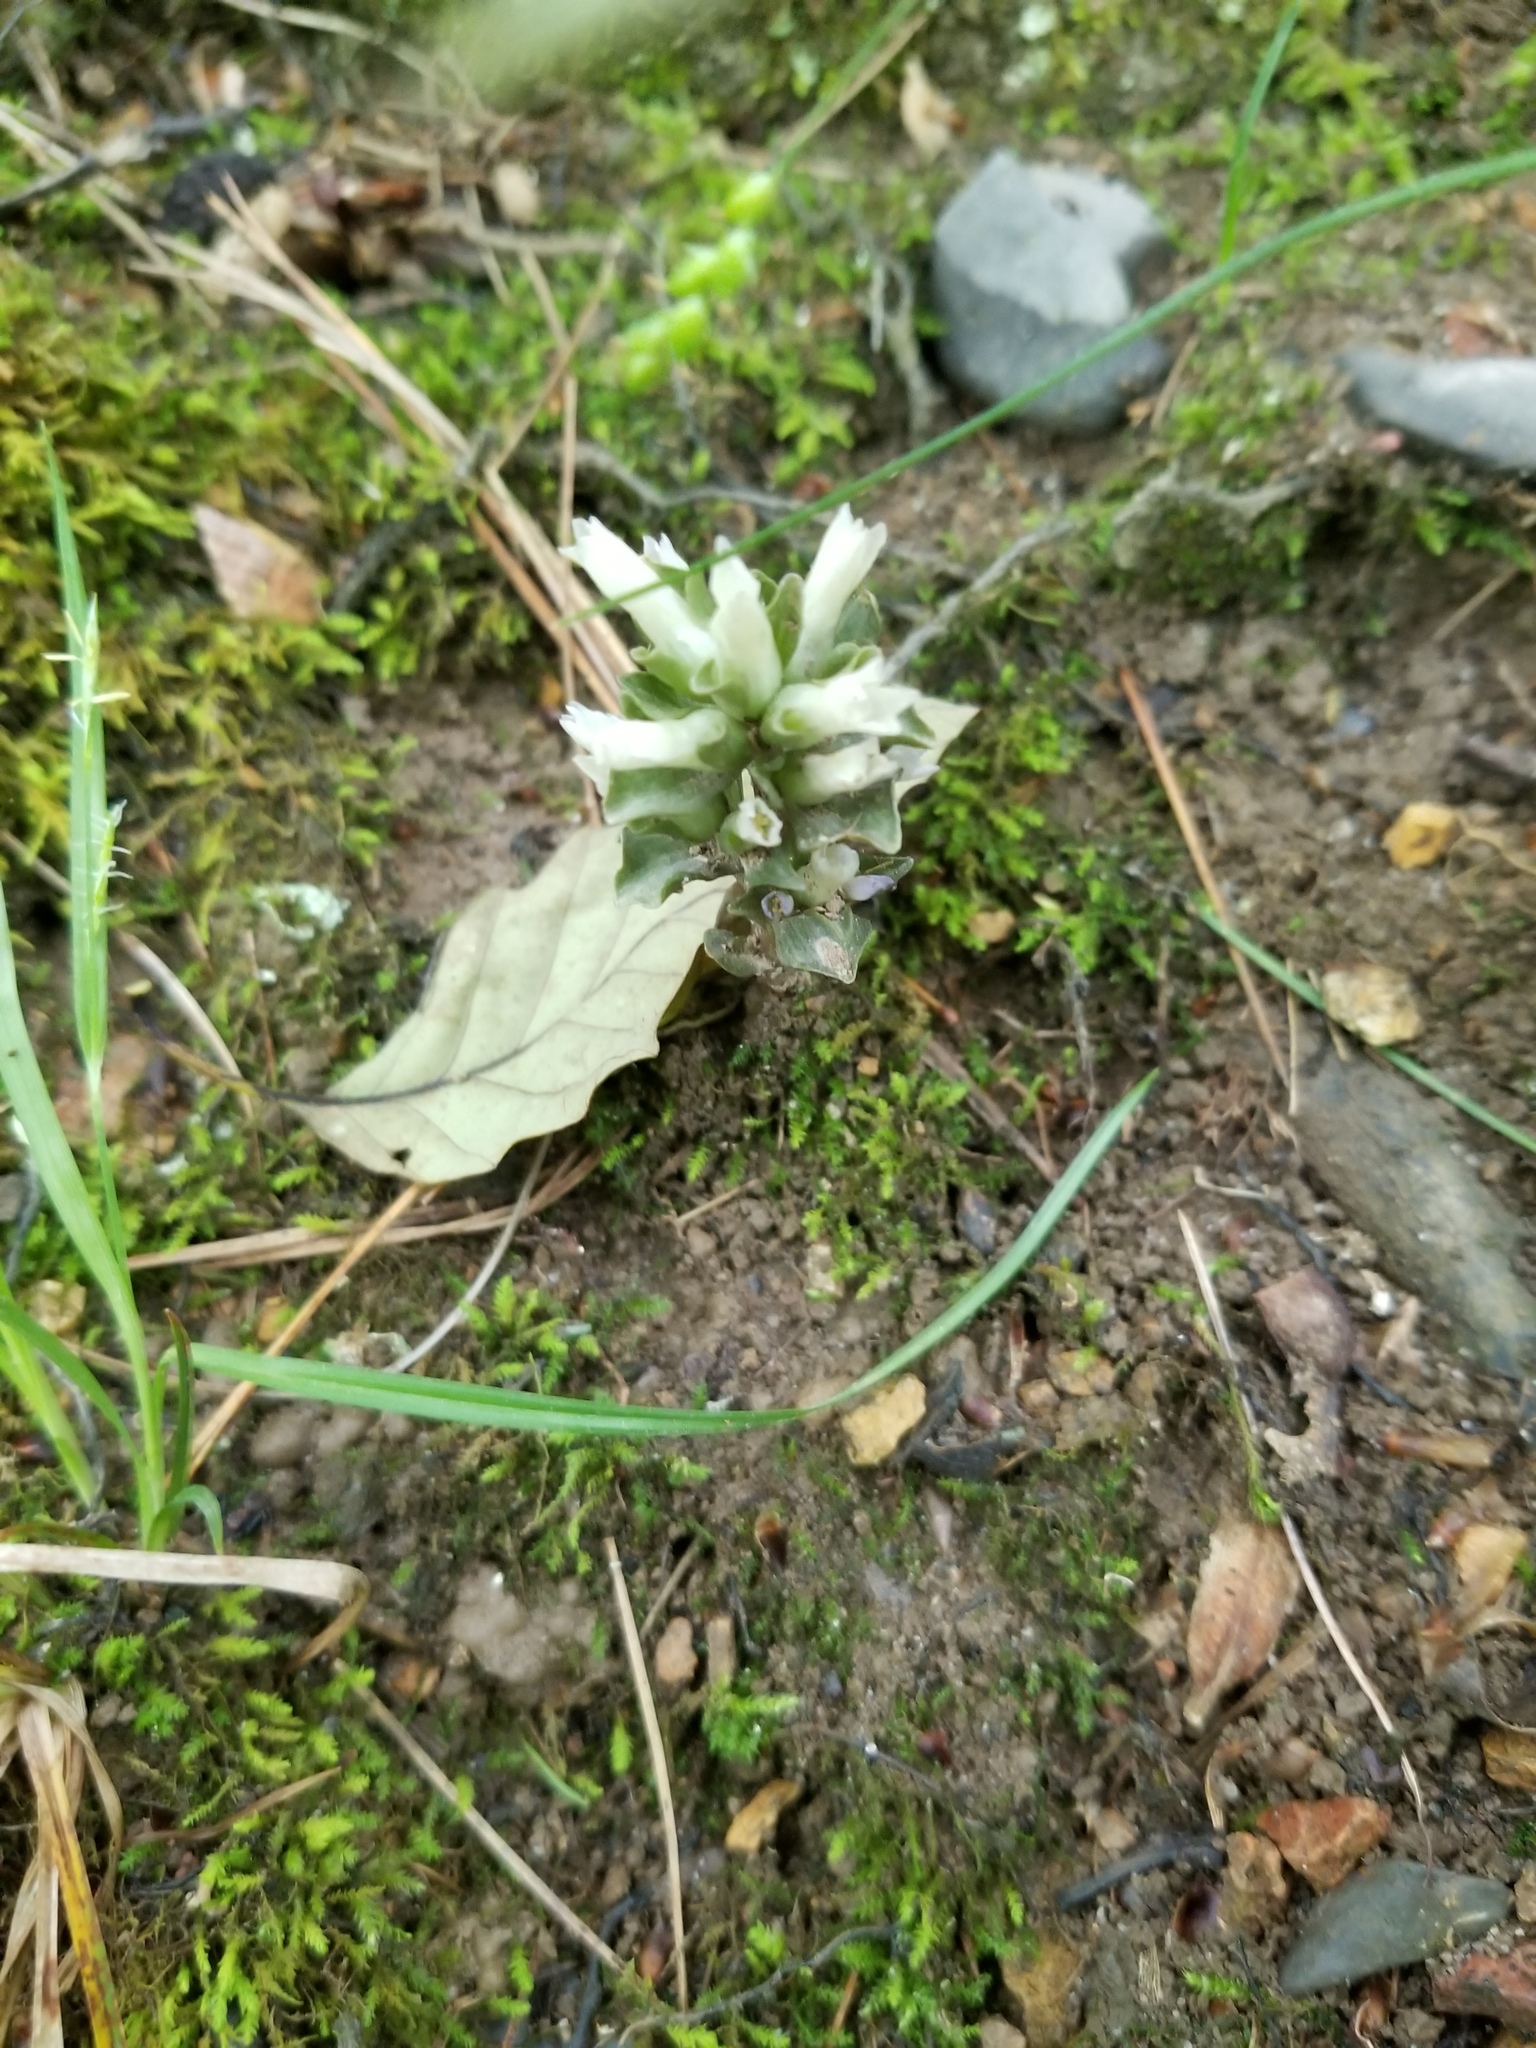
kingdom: Plantae
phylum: Tracheophyta
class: Magnoliopsida
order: Gentianales
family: Gentianaceae
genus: Obolaria
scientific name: Obolaria virginica
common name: Pennywort
